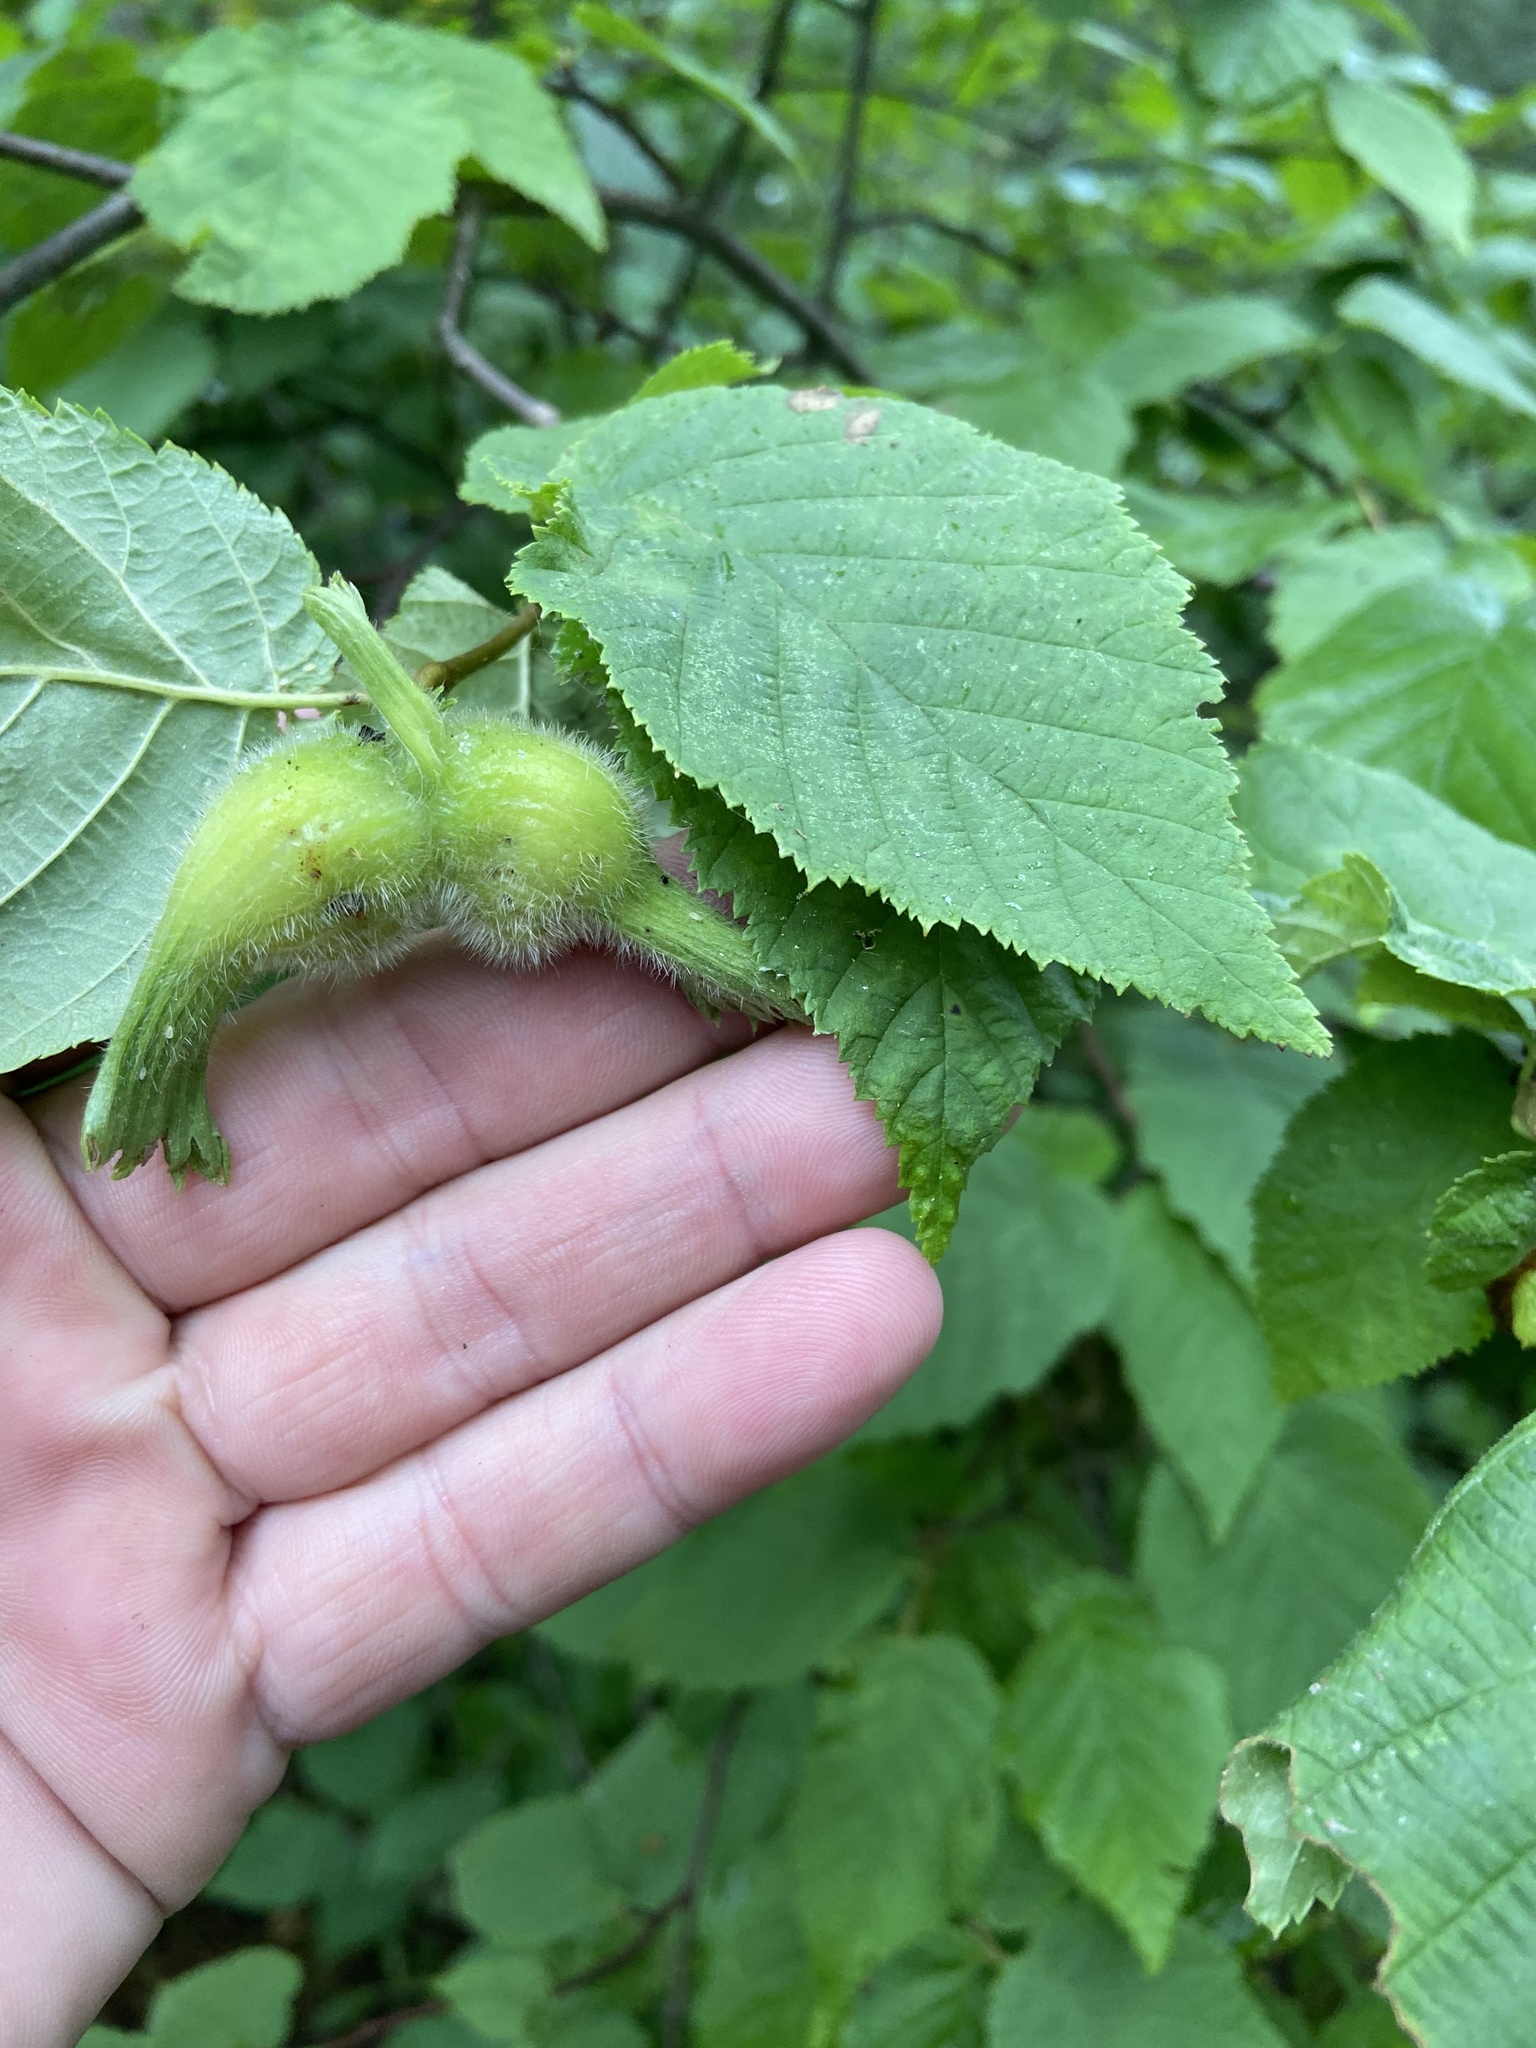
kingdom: Plantae
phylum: Tracheophyta
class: Magnoliopsida
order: Fagales
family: Betulaceae
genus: Corylus
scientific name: Corylus cornuta
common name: Beaked hazel
